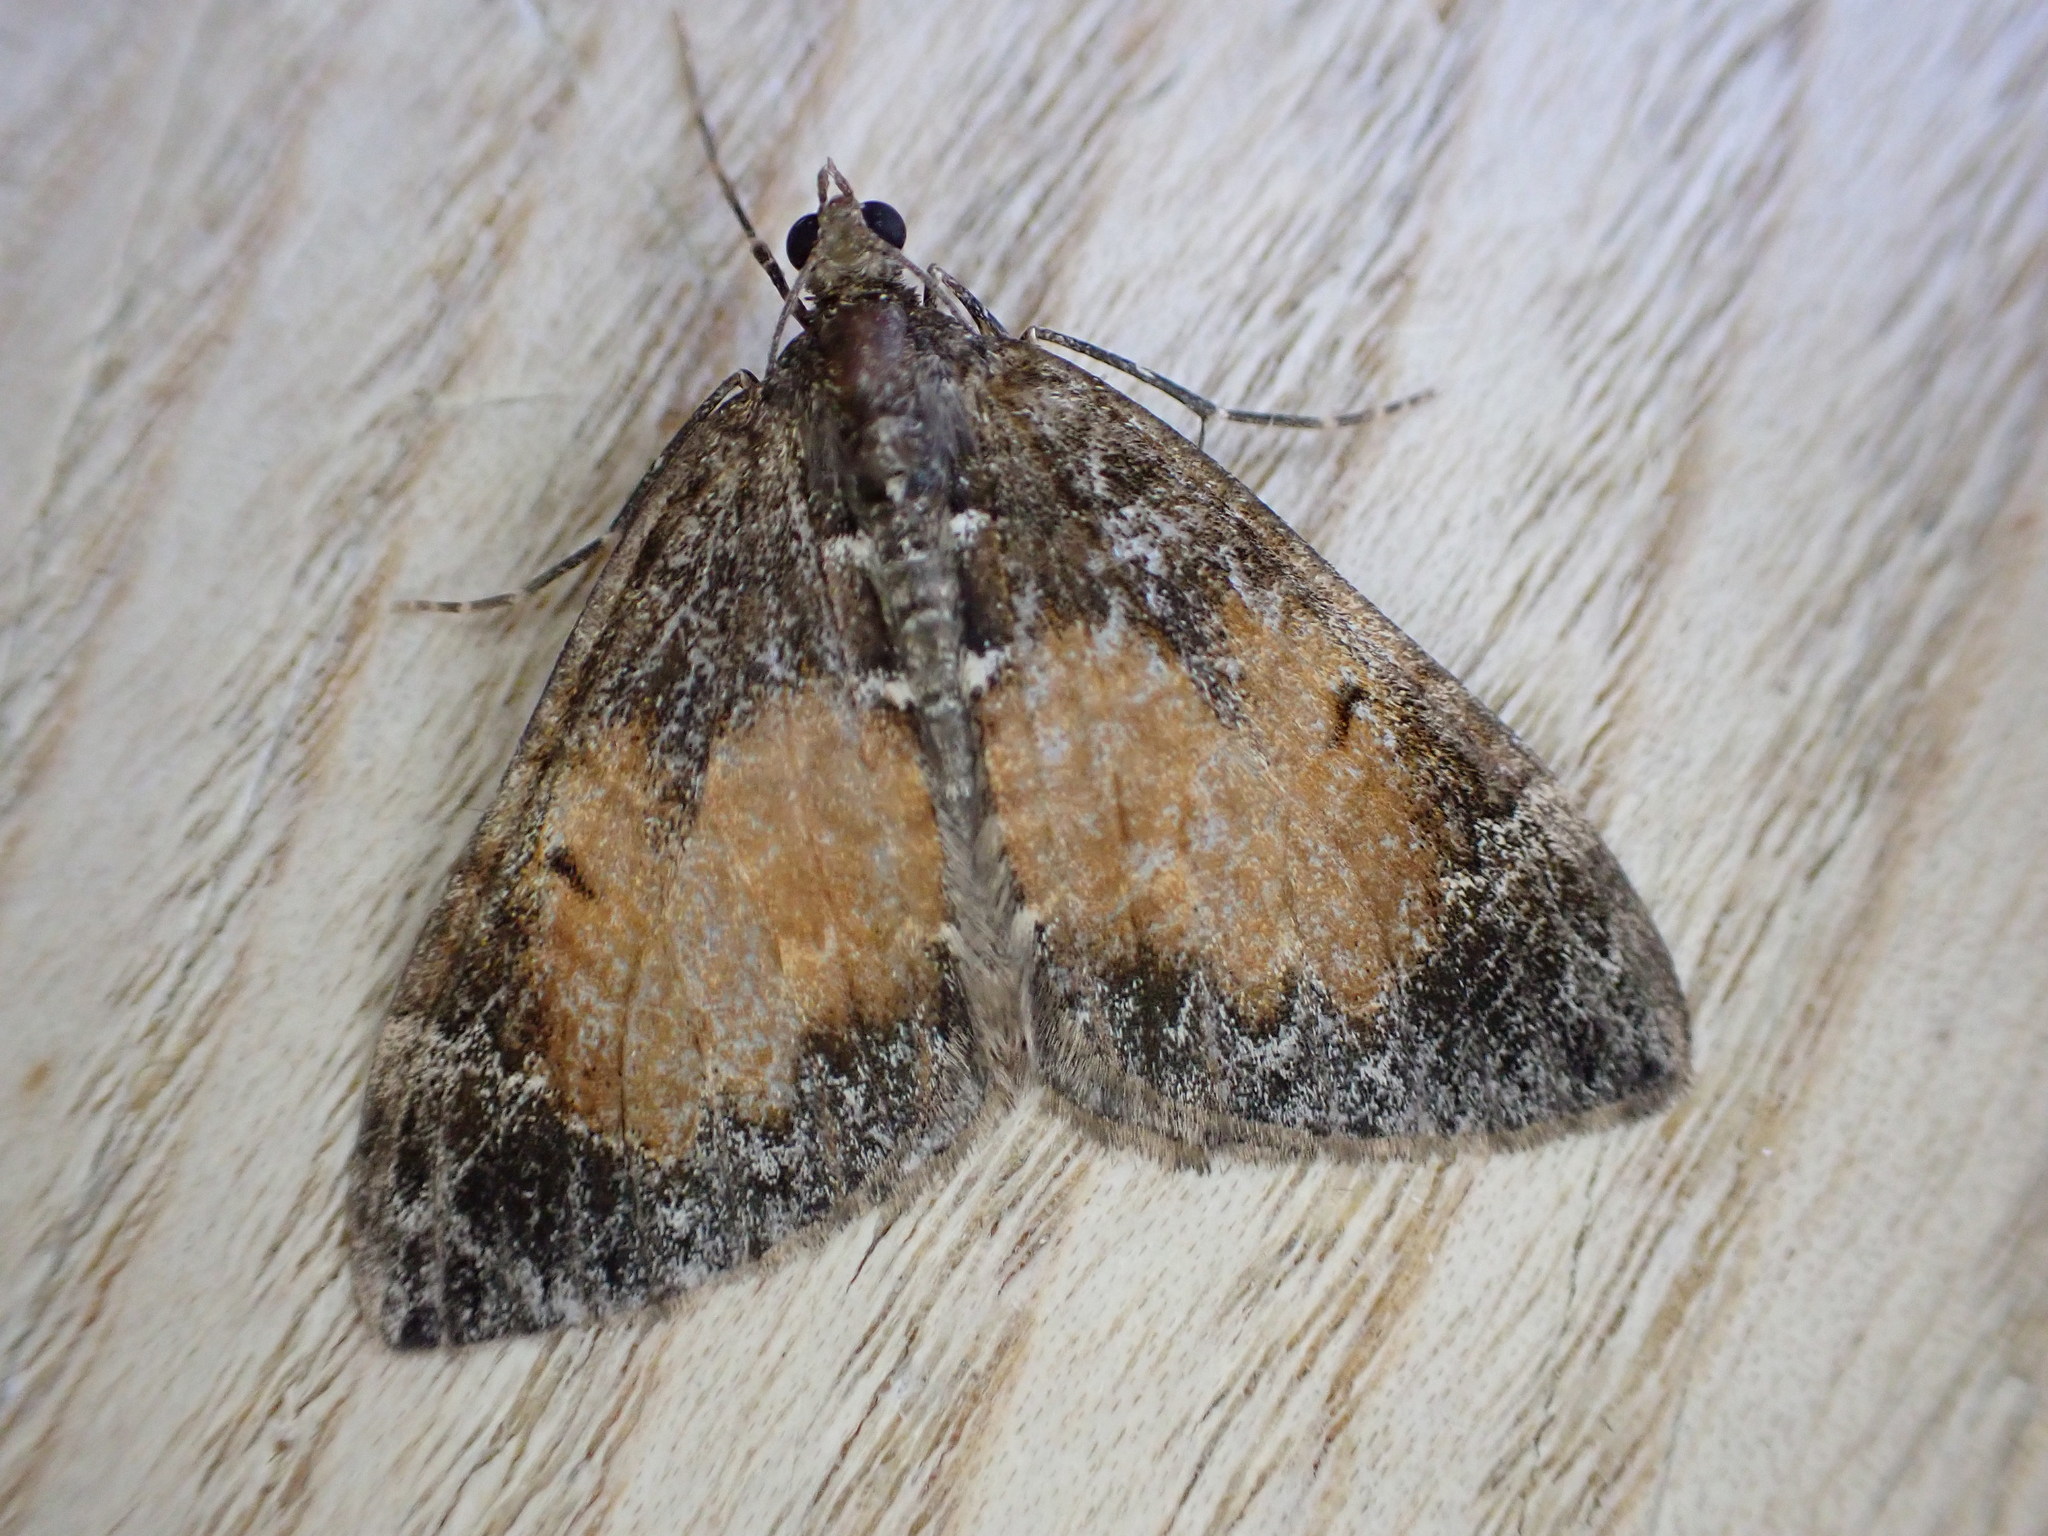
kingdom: Animalia
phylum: Arthropoda
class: Insecta
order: Lepidoptera
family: Geometridae
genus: Dysstroma
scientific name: Dysstroma truncata
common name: Common marbled carpet
